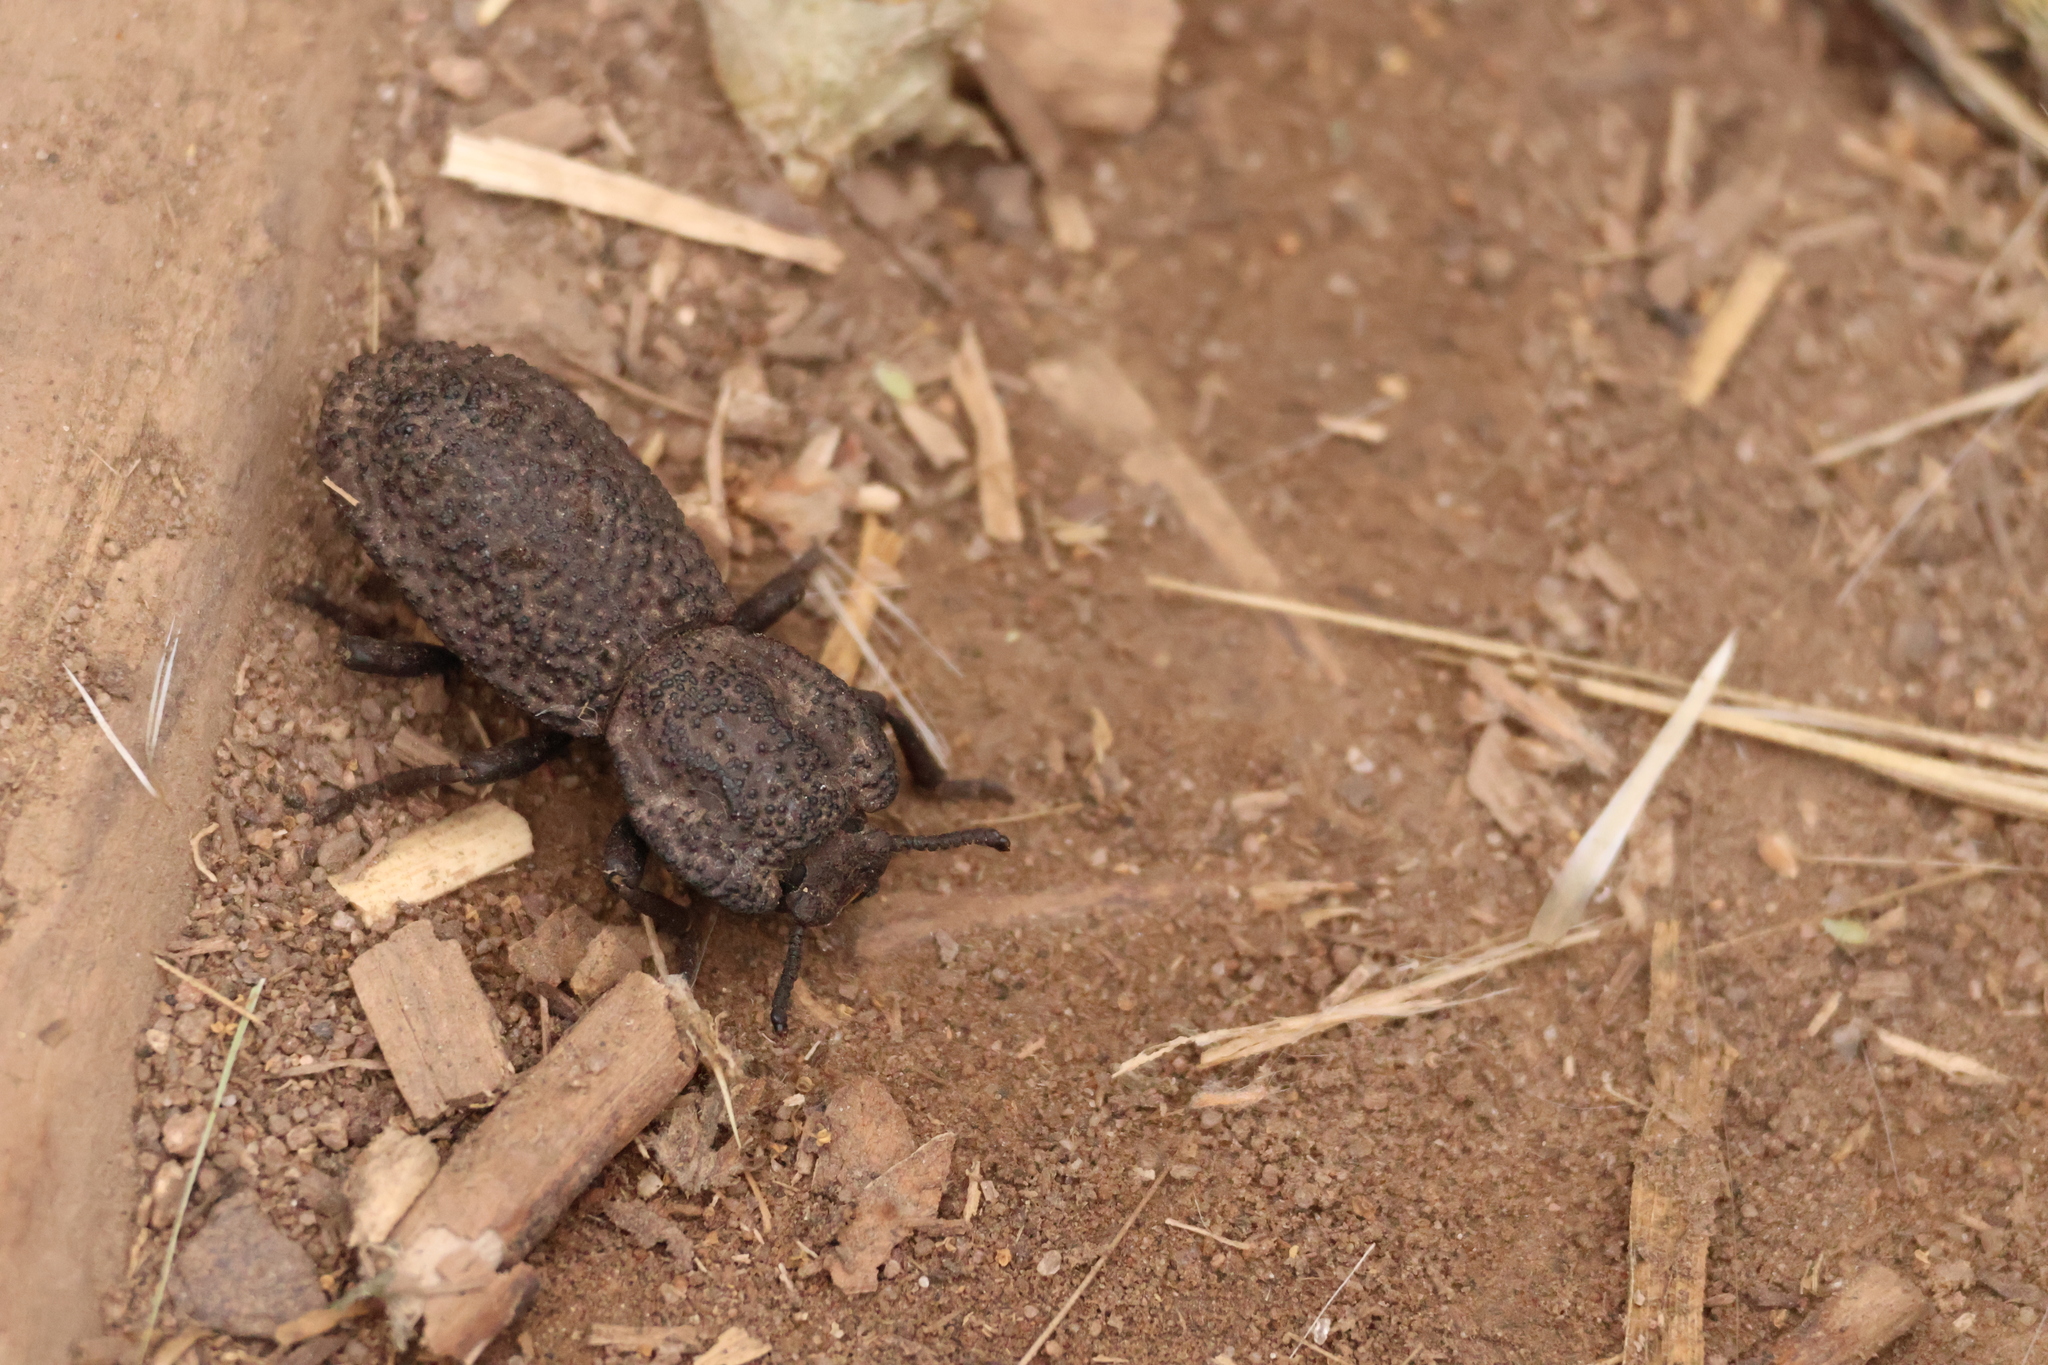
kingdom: Animalia
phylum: Arthropoda
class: Insecta
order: Coleoptera
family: Zopheridae
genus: Phloeodes
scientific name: Phloeodes diabolicus
